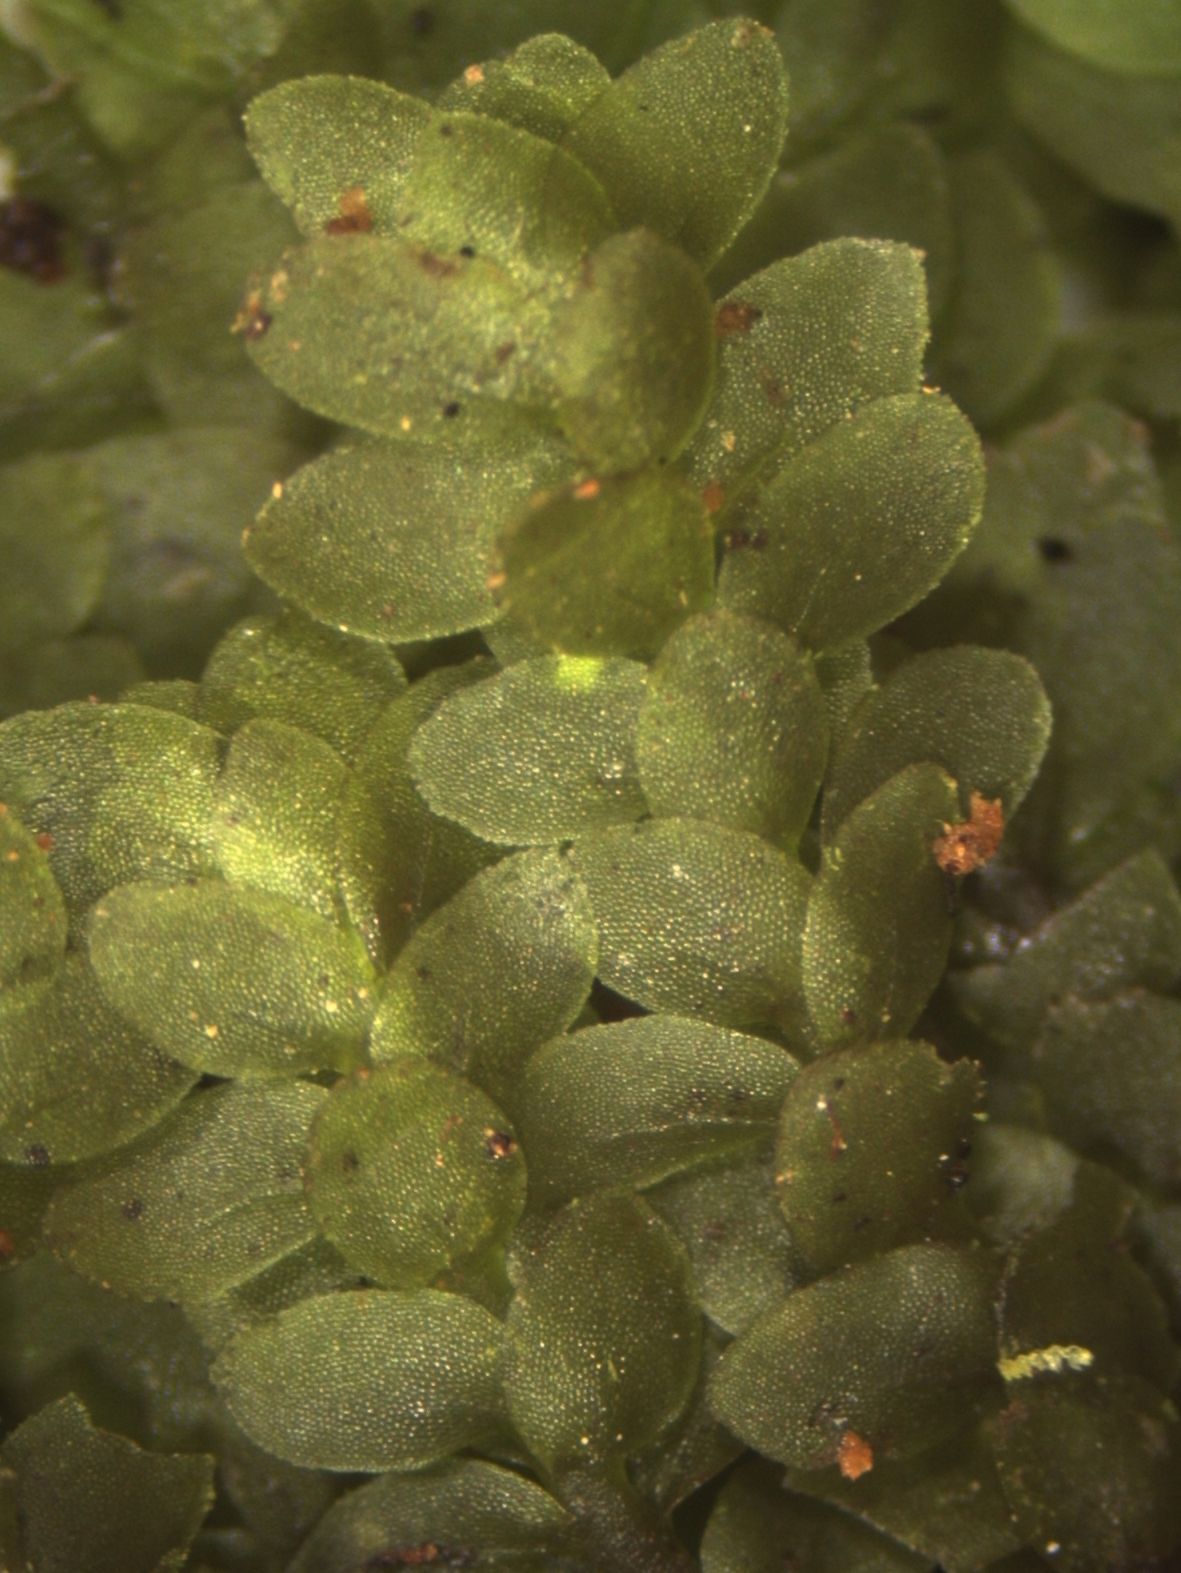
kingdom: Plantae
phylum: Bryophyta
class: Bryopsida
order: Hookeriales
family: Daltoniaceae
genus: Achrophyllum
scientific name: Achrophyllum dentatum
